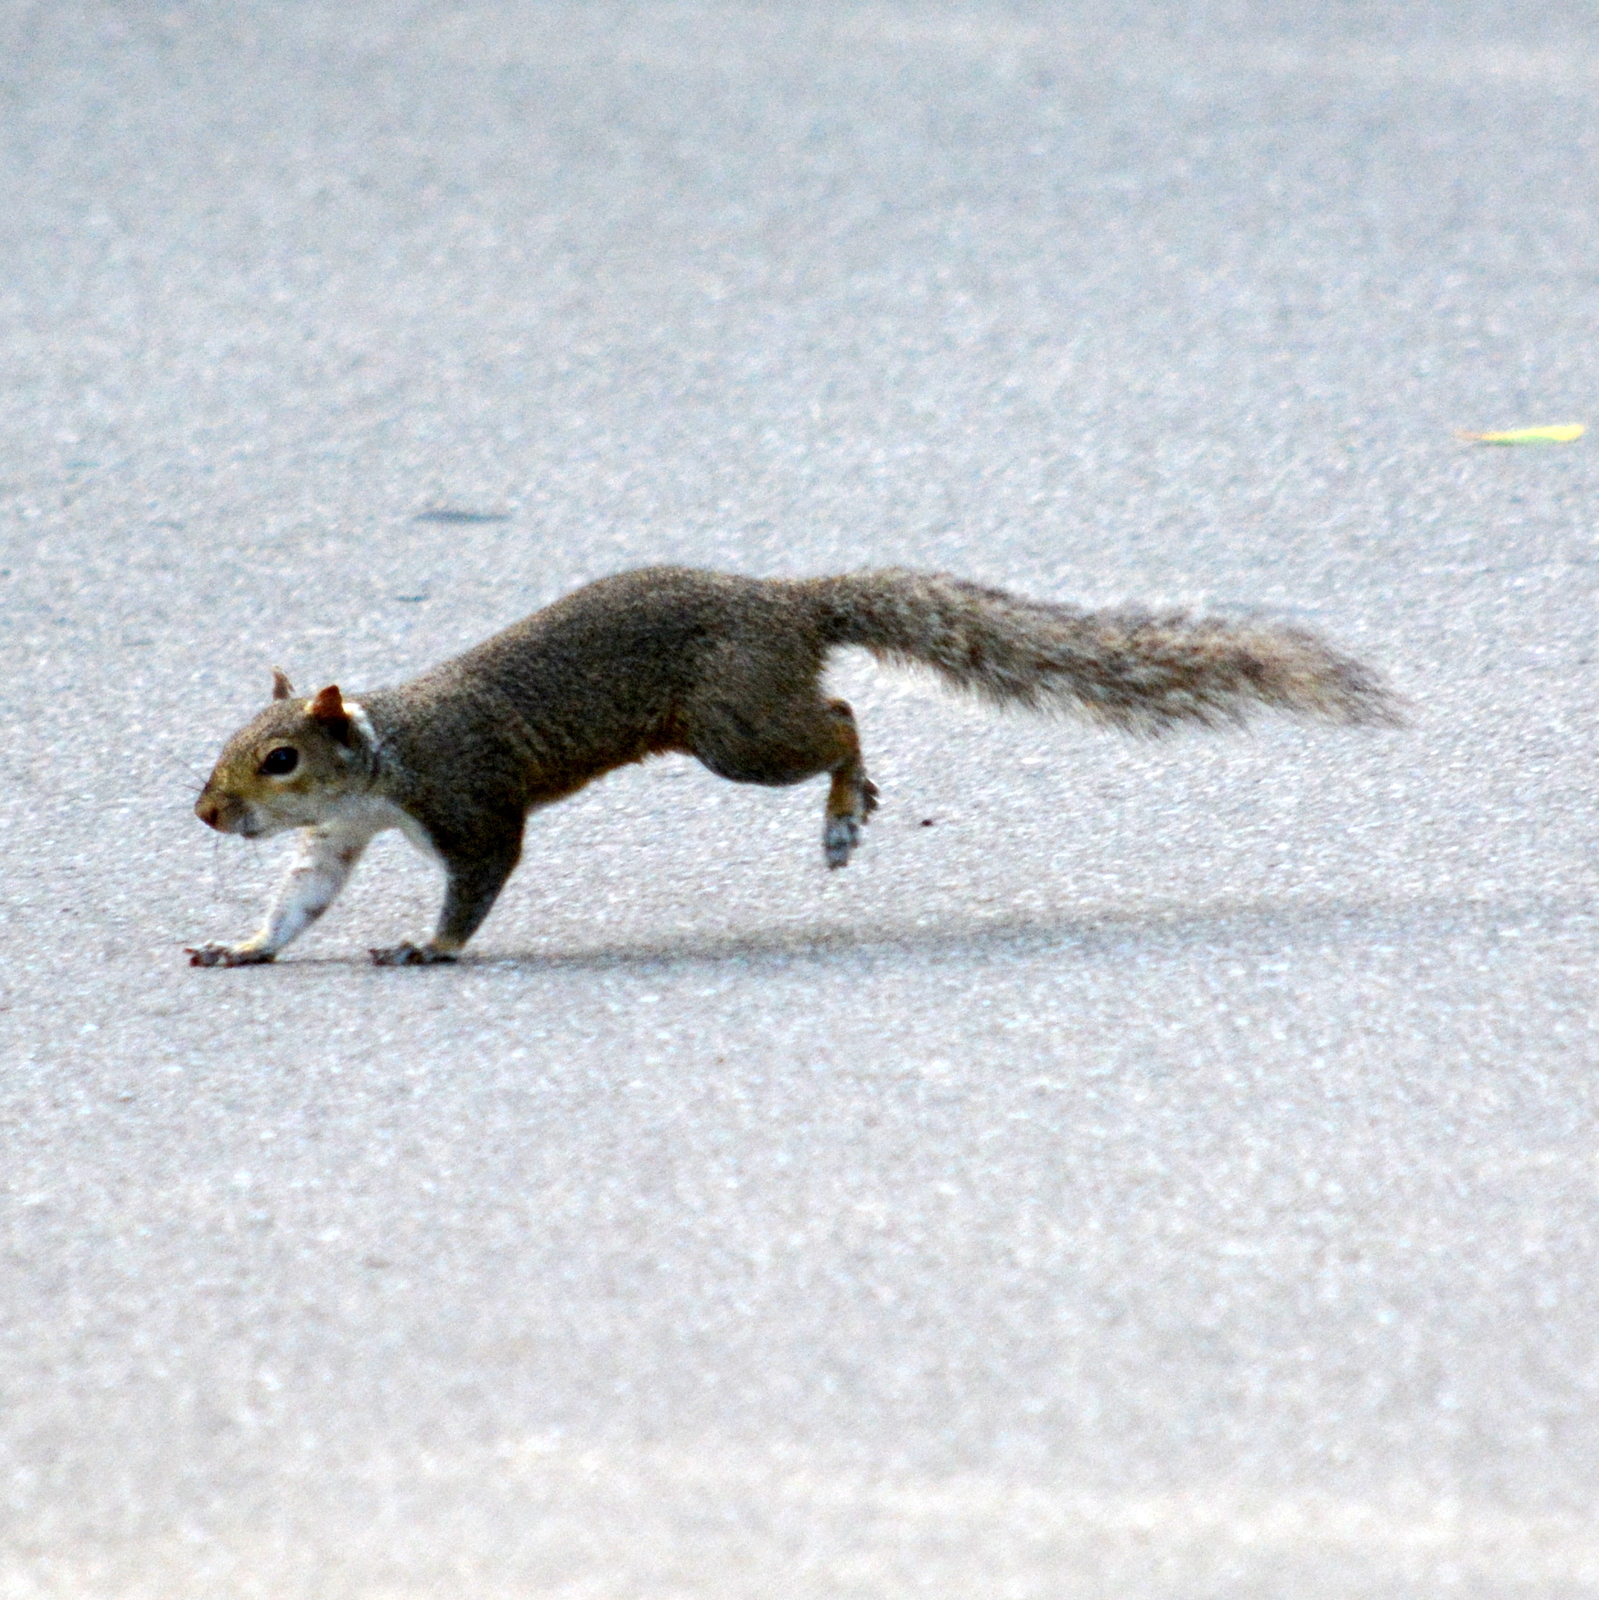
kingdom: Animalia
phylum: Chordata
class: Mammalia
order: Rodentia
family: Sciuridae
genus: Sciurus
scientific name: Sciurus carolinensis
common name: Eastern gray squirrel
